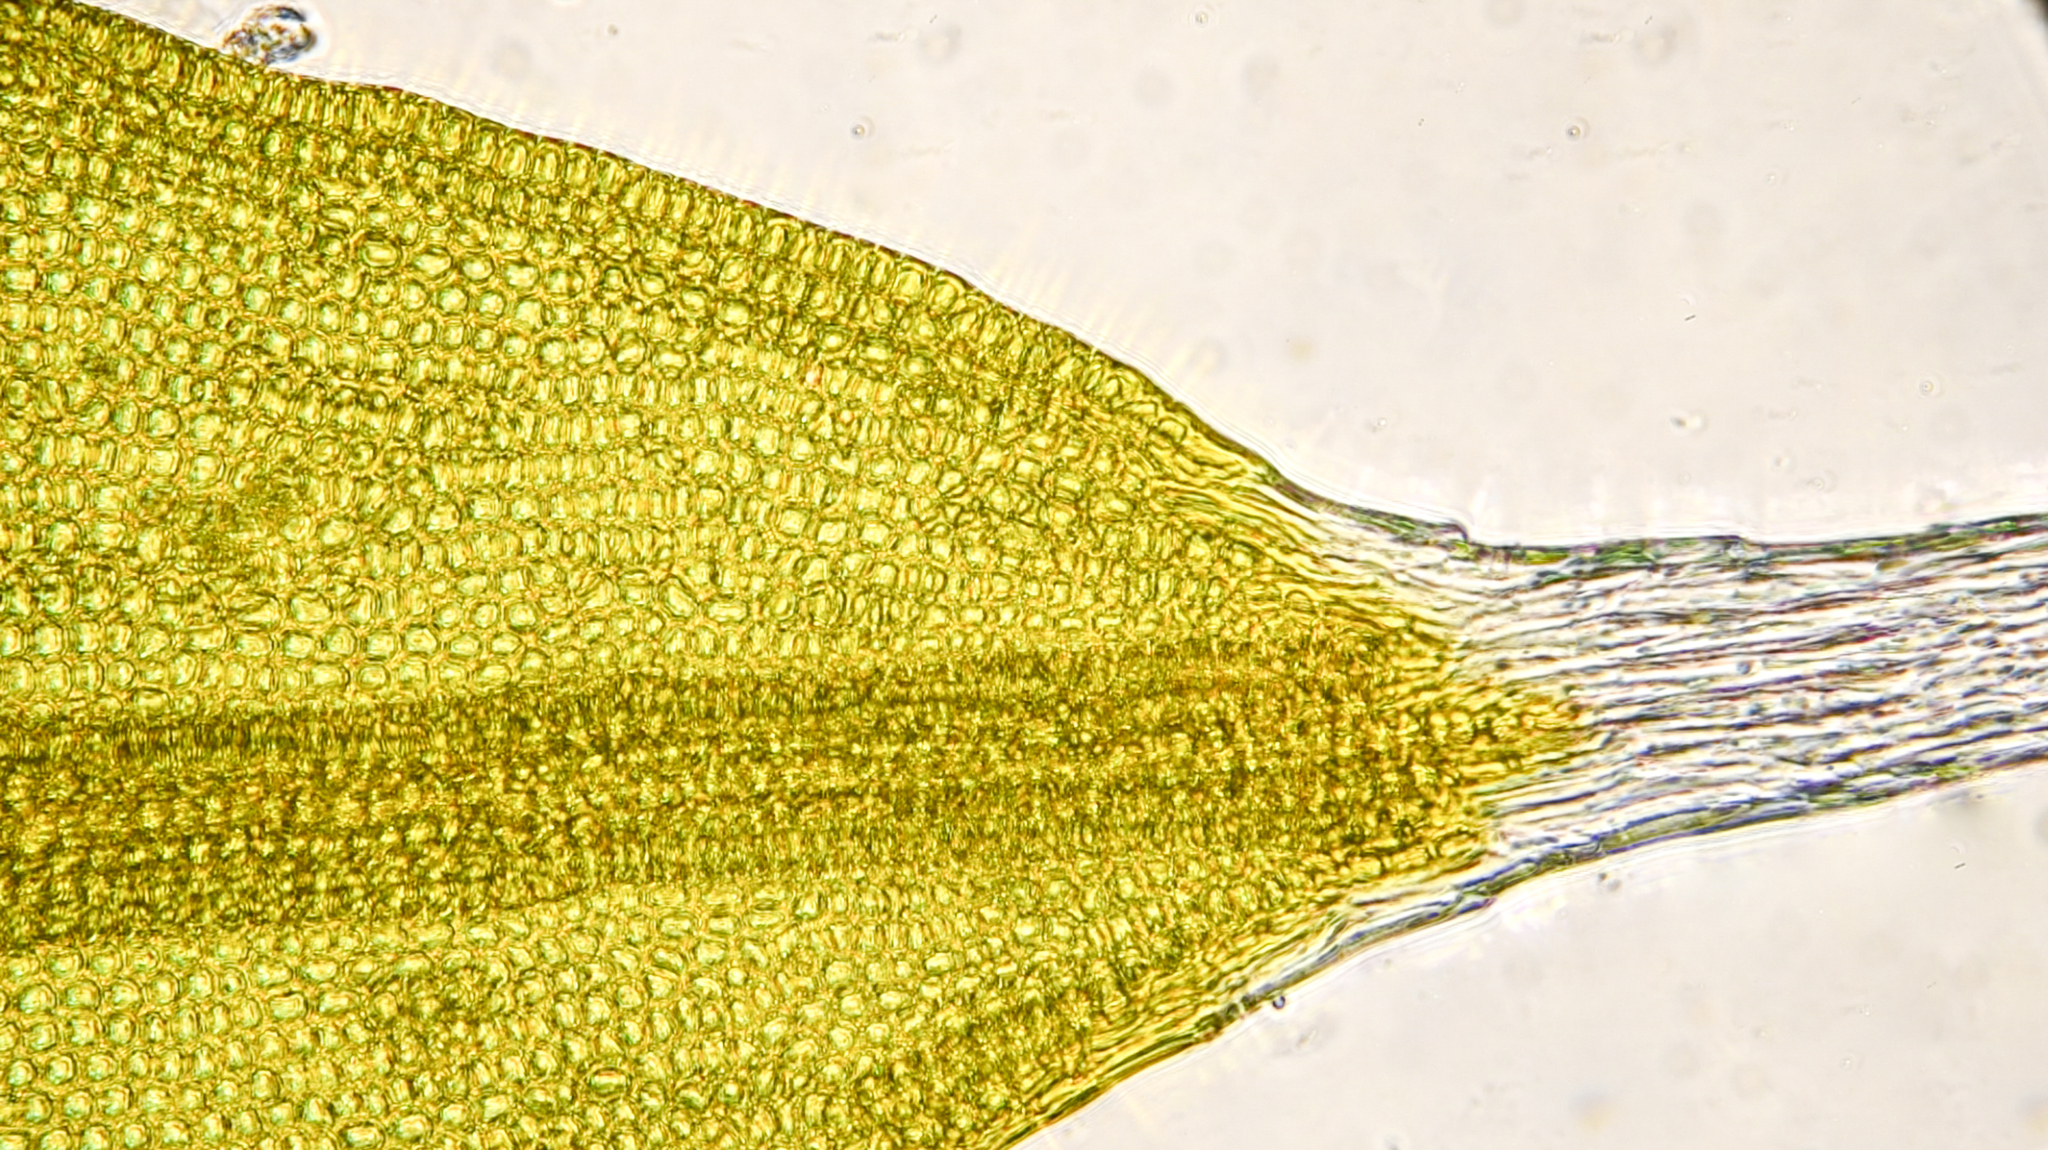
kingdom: Plantae
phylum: Bryophyta
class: Bryopsida
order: Grimmiales
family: Grimmiaceae
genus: Grimmia
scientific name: Grimmia pulvinata
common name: Grey-cushioned grimmia
